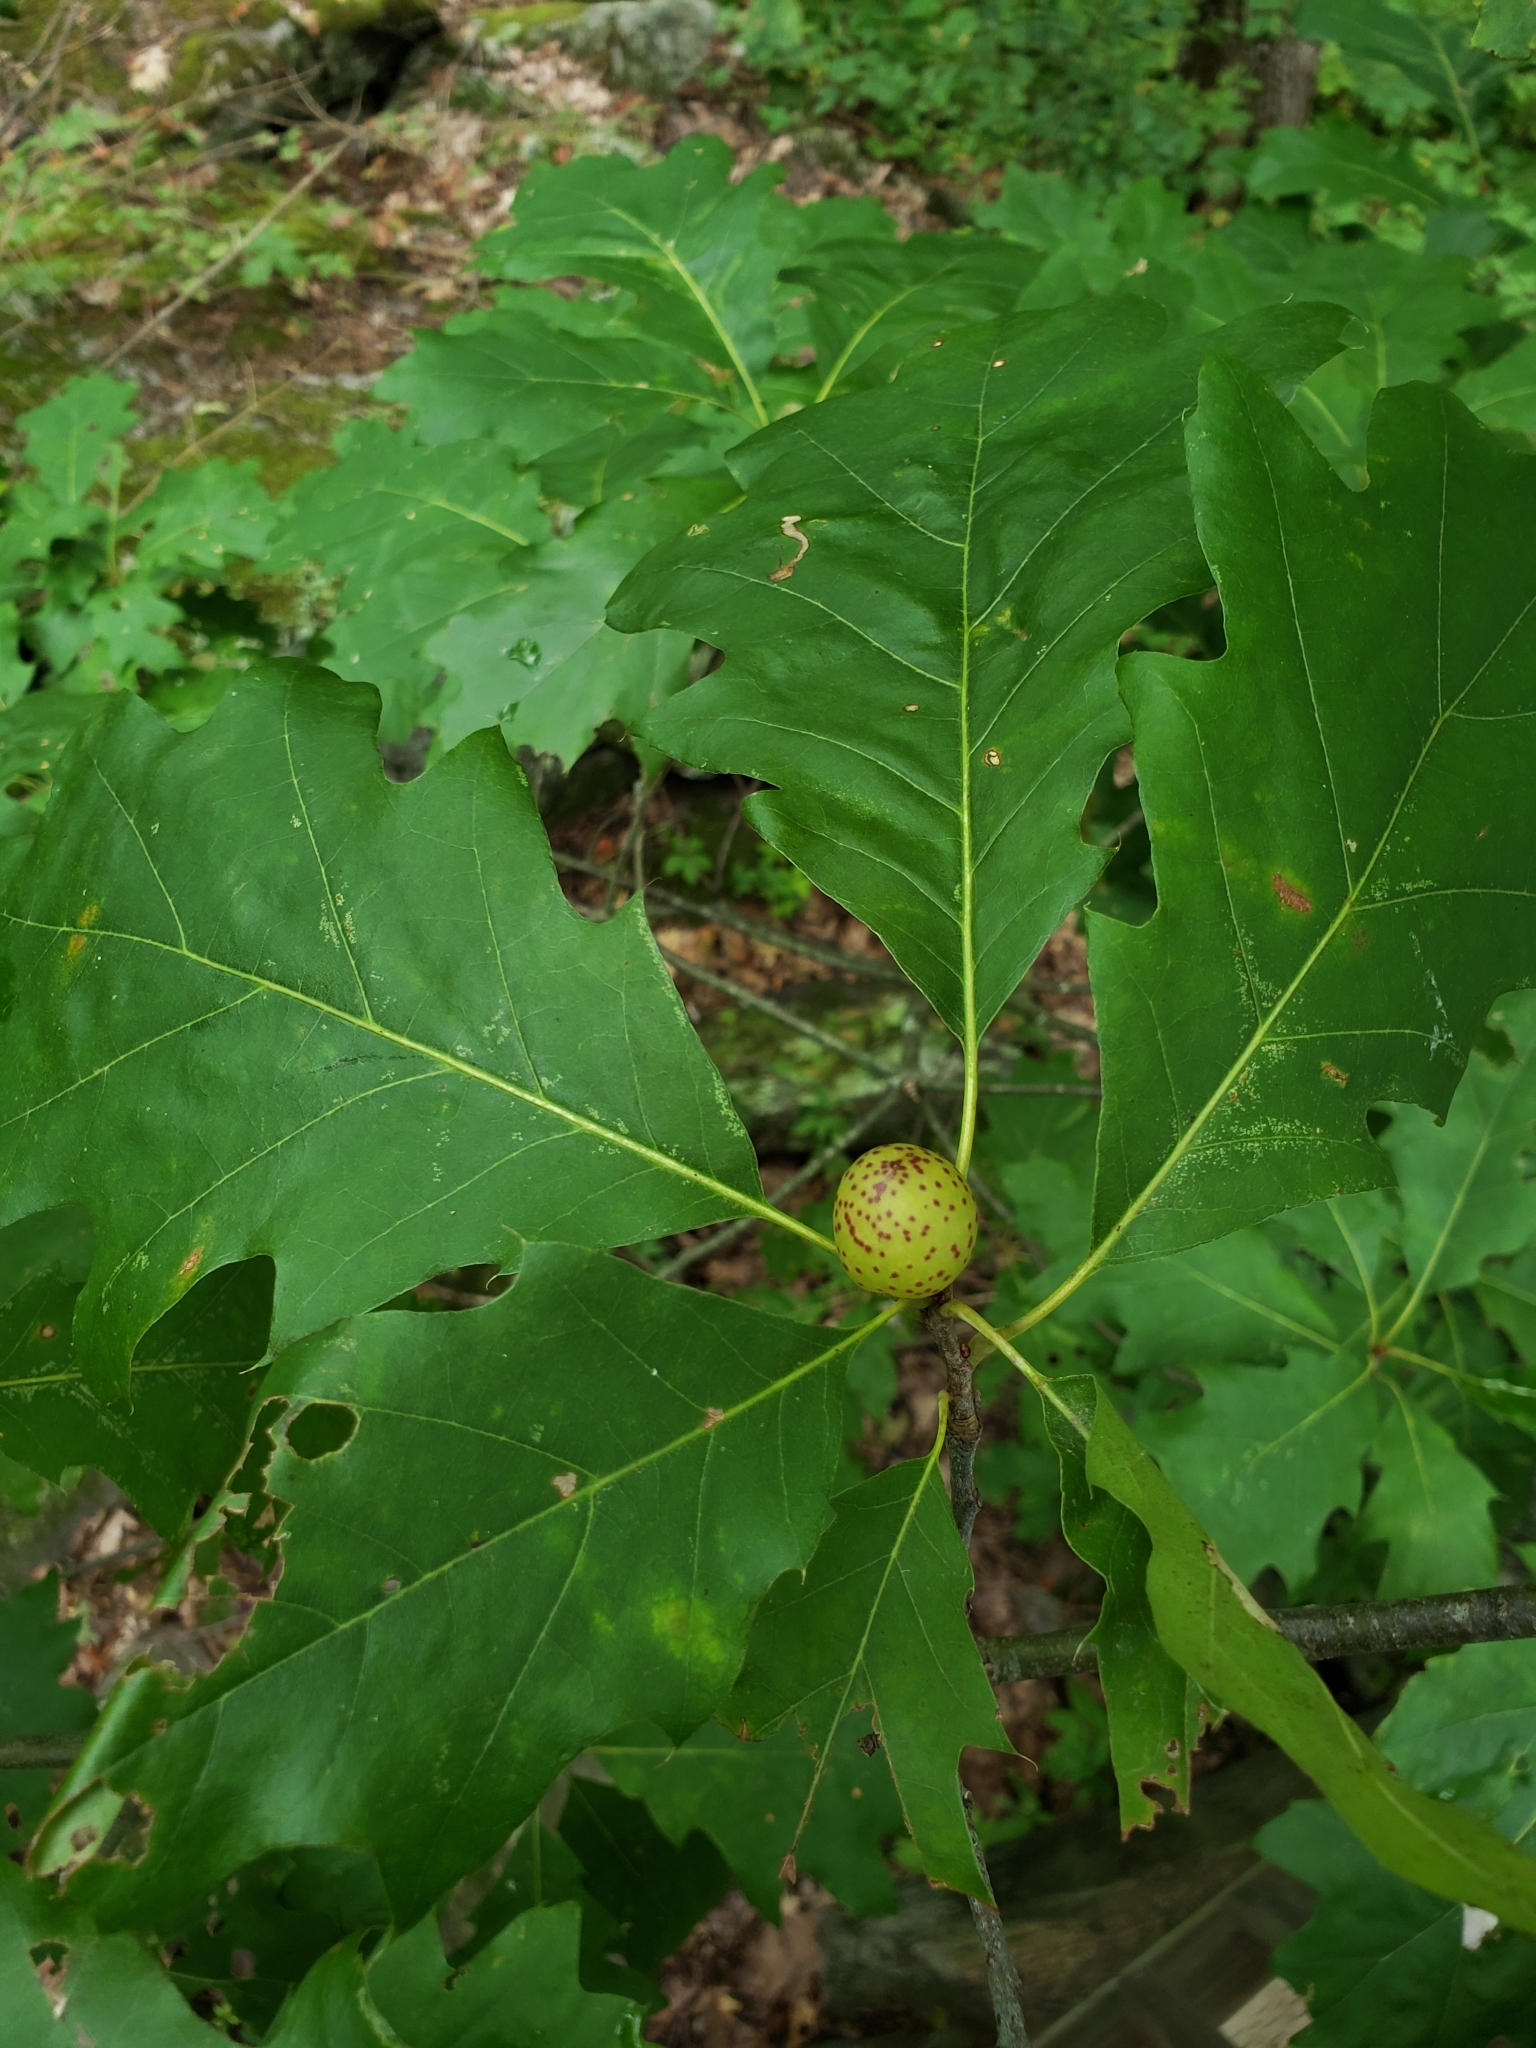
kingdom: Animalia
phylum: Arthropoda
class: Insecta
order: Hymenoptera
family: Cynipidae
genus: Amphibolips
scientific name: Amphibolips
